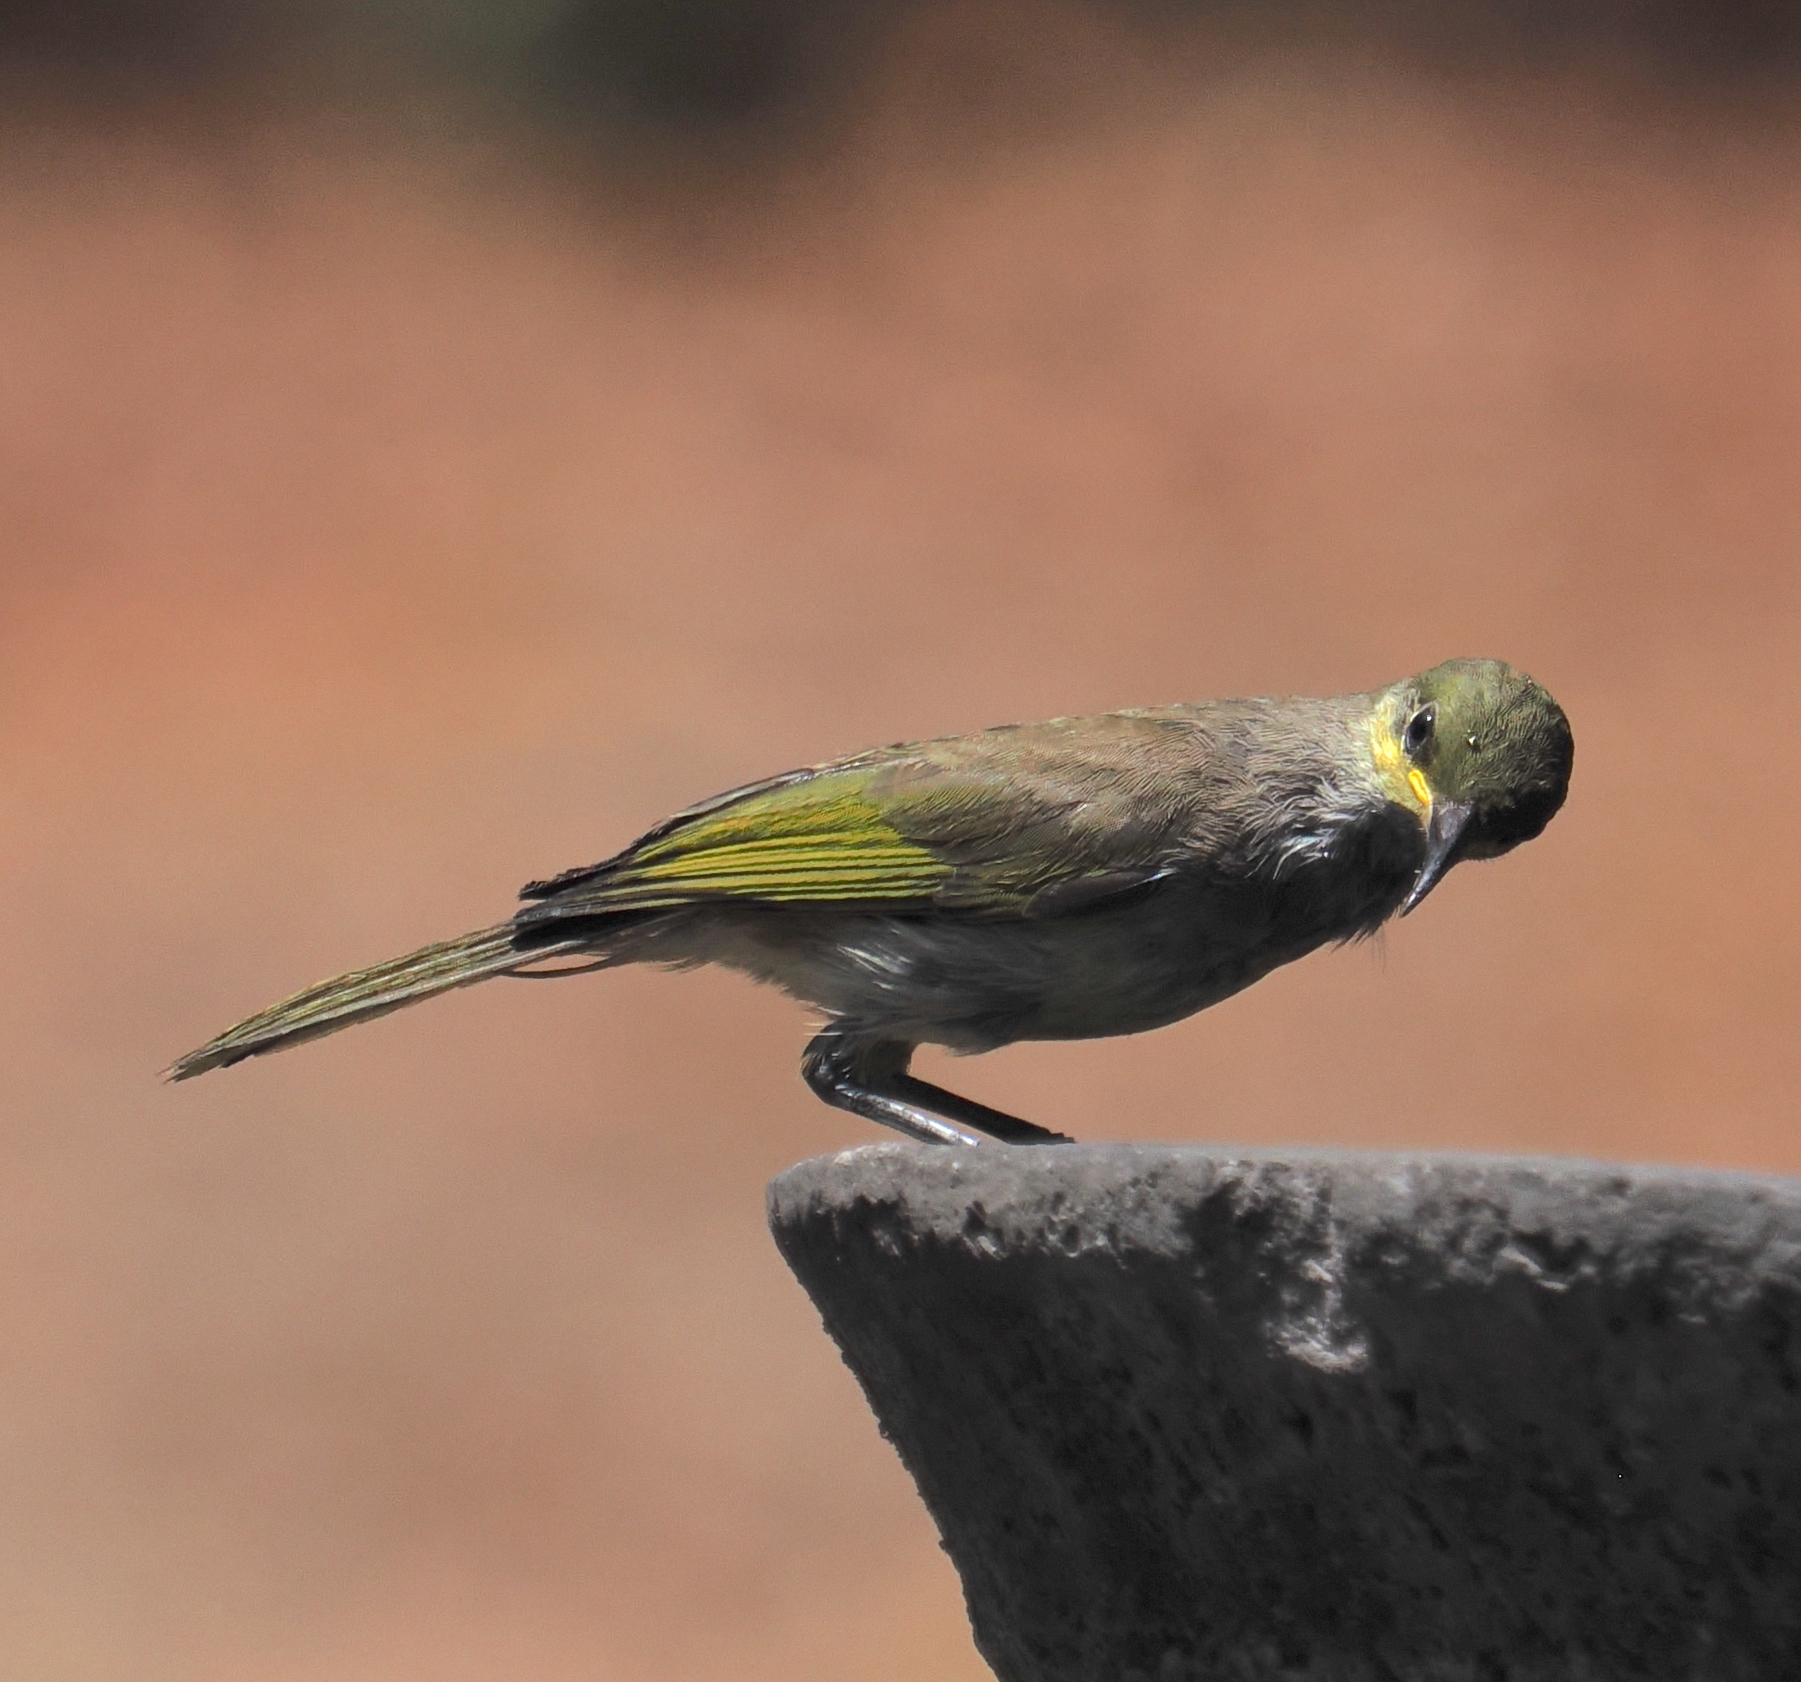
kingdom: Animalia
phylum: Chordata
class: Aves
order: Passeriformes
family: Meliphagidae
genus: Lichmera
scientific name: Lichmera indistincta
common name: Brown honeyeater
